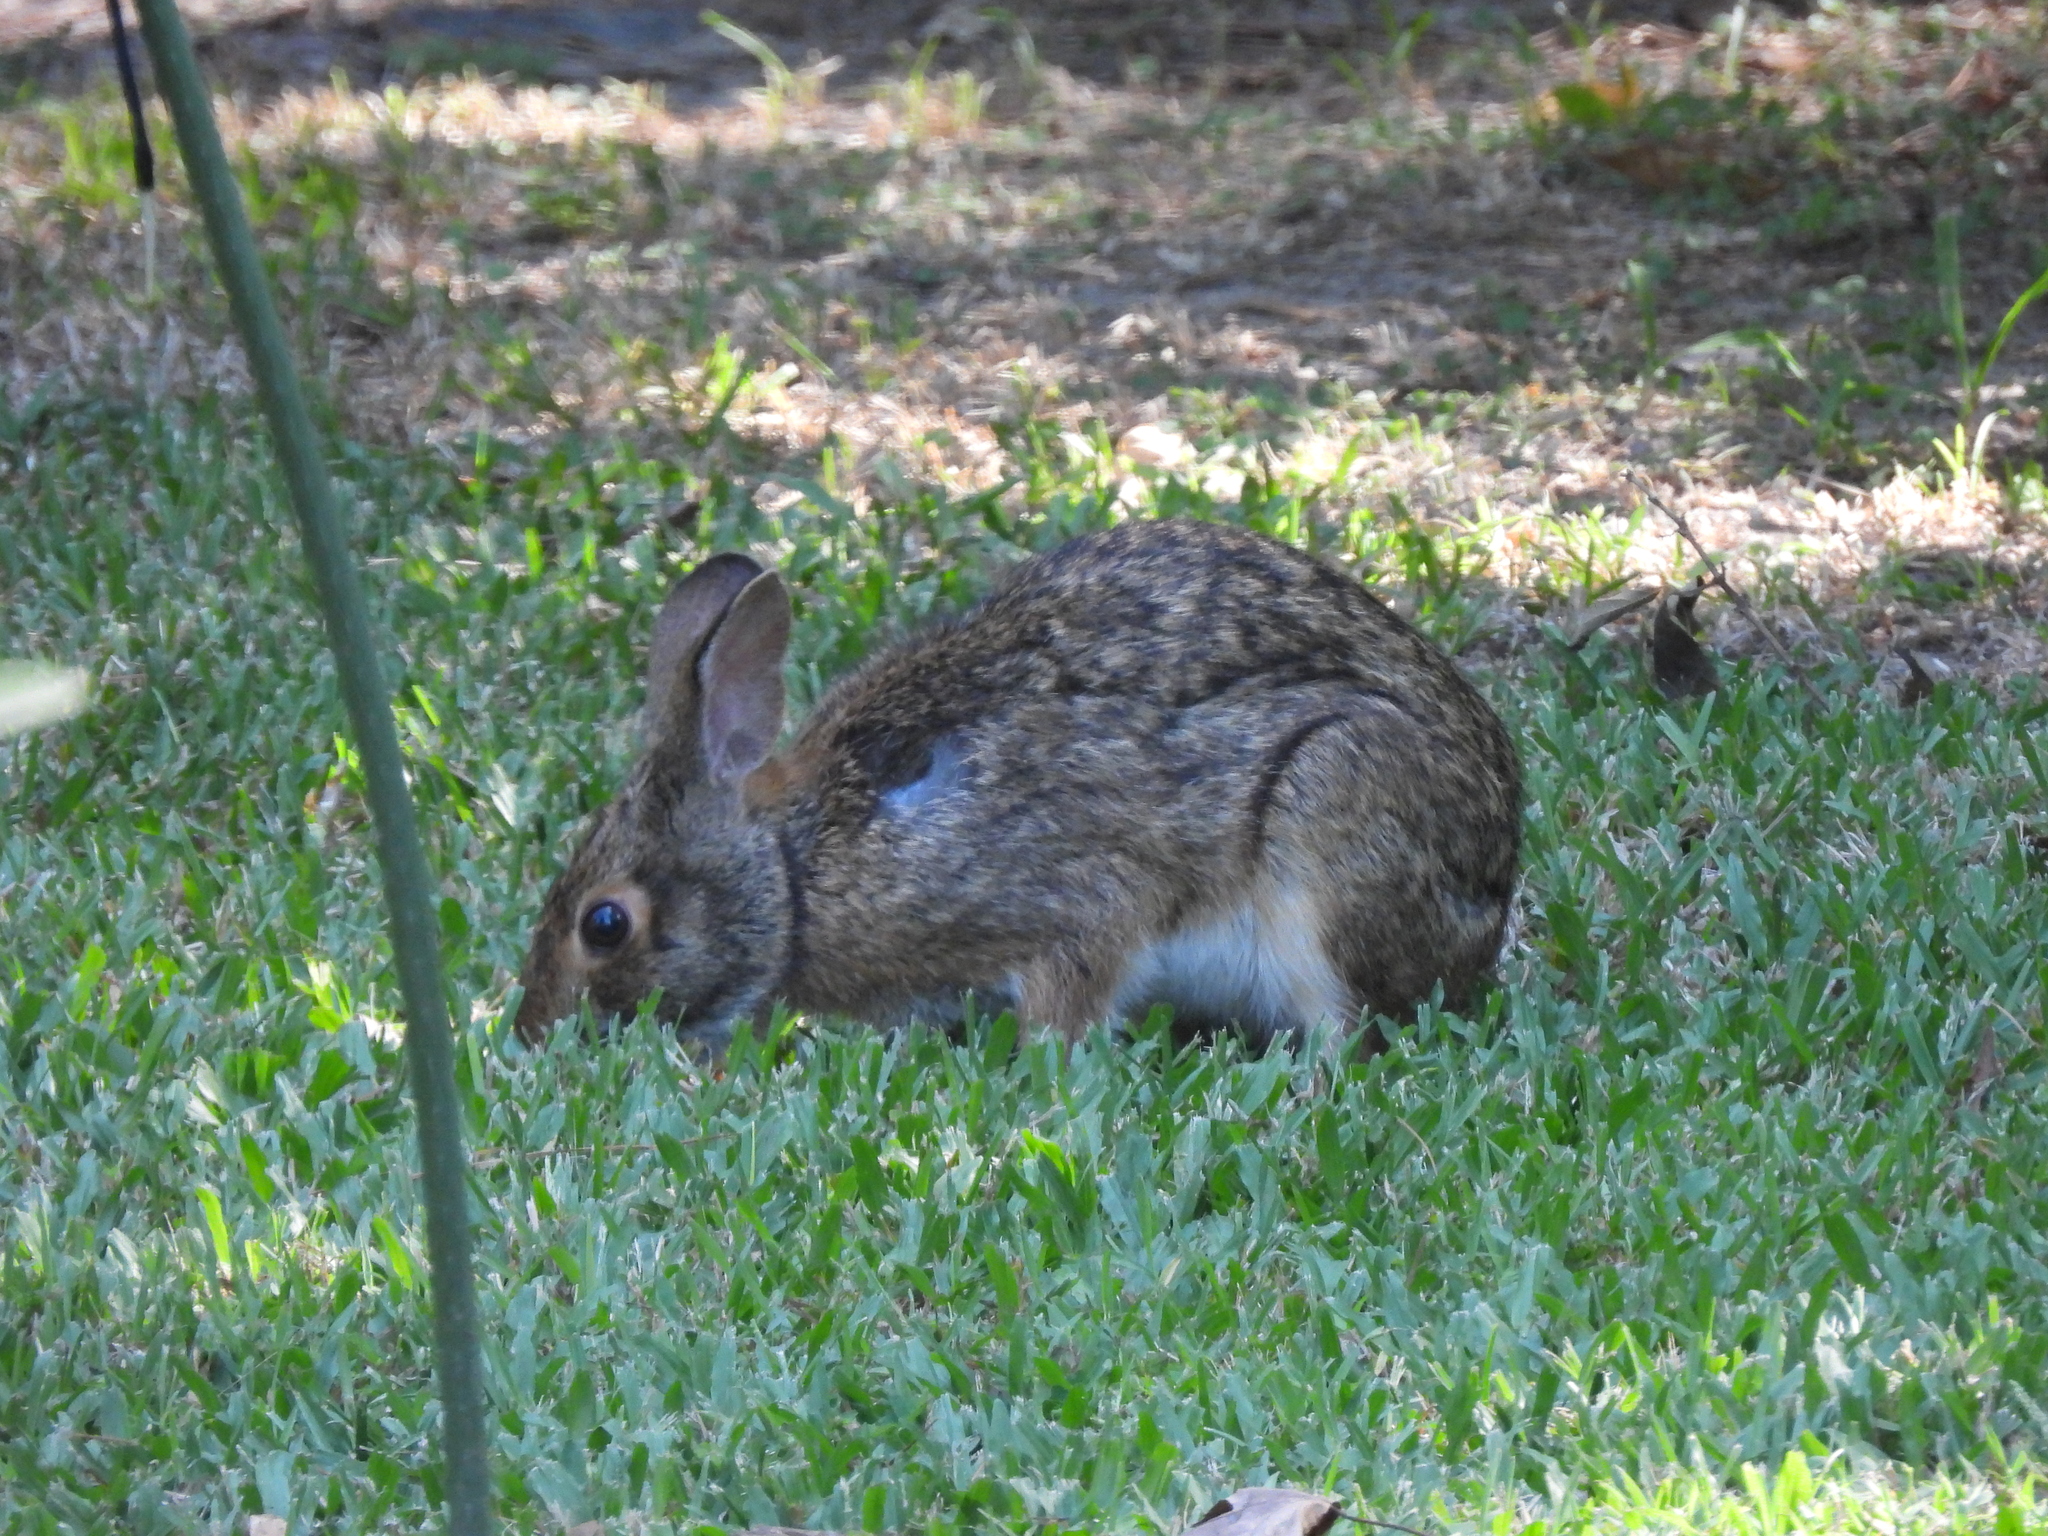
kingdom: Animalia
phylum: Chordata
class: Mammalia
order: Lagomorpha
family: Leporidae
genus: Sylvilagus
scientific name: Sylvilagus aquaticus
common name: Swamp rabbit
